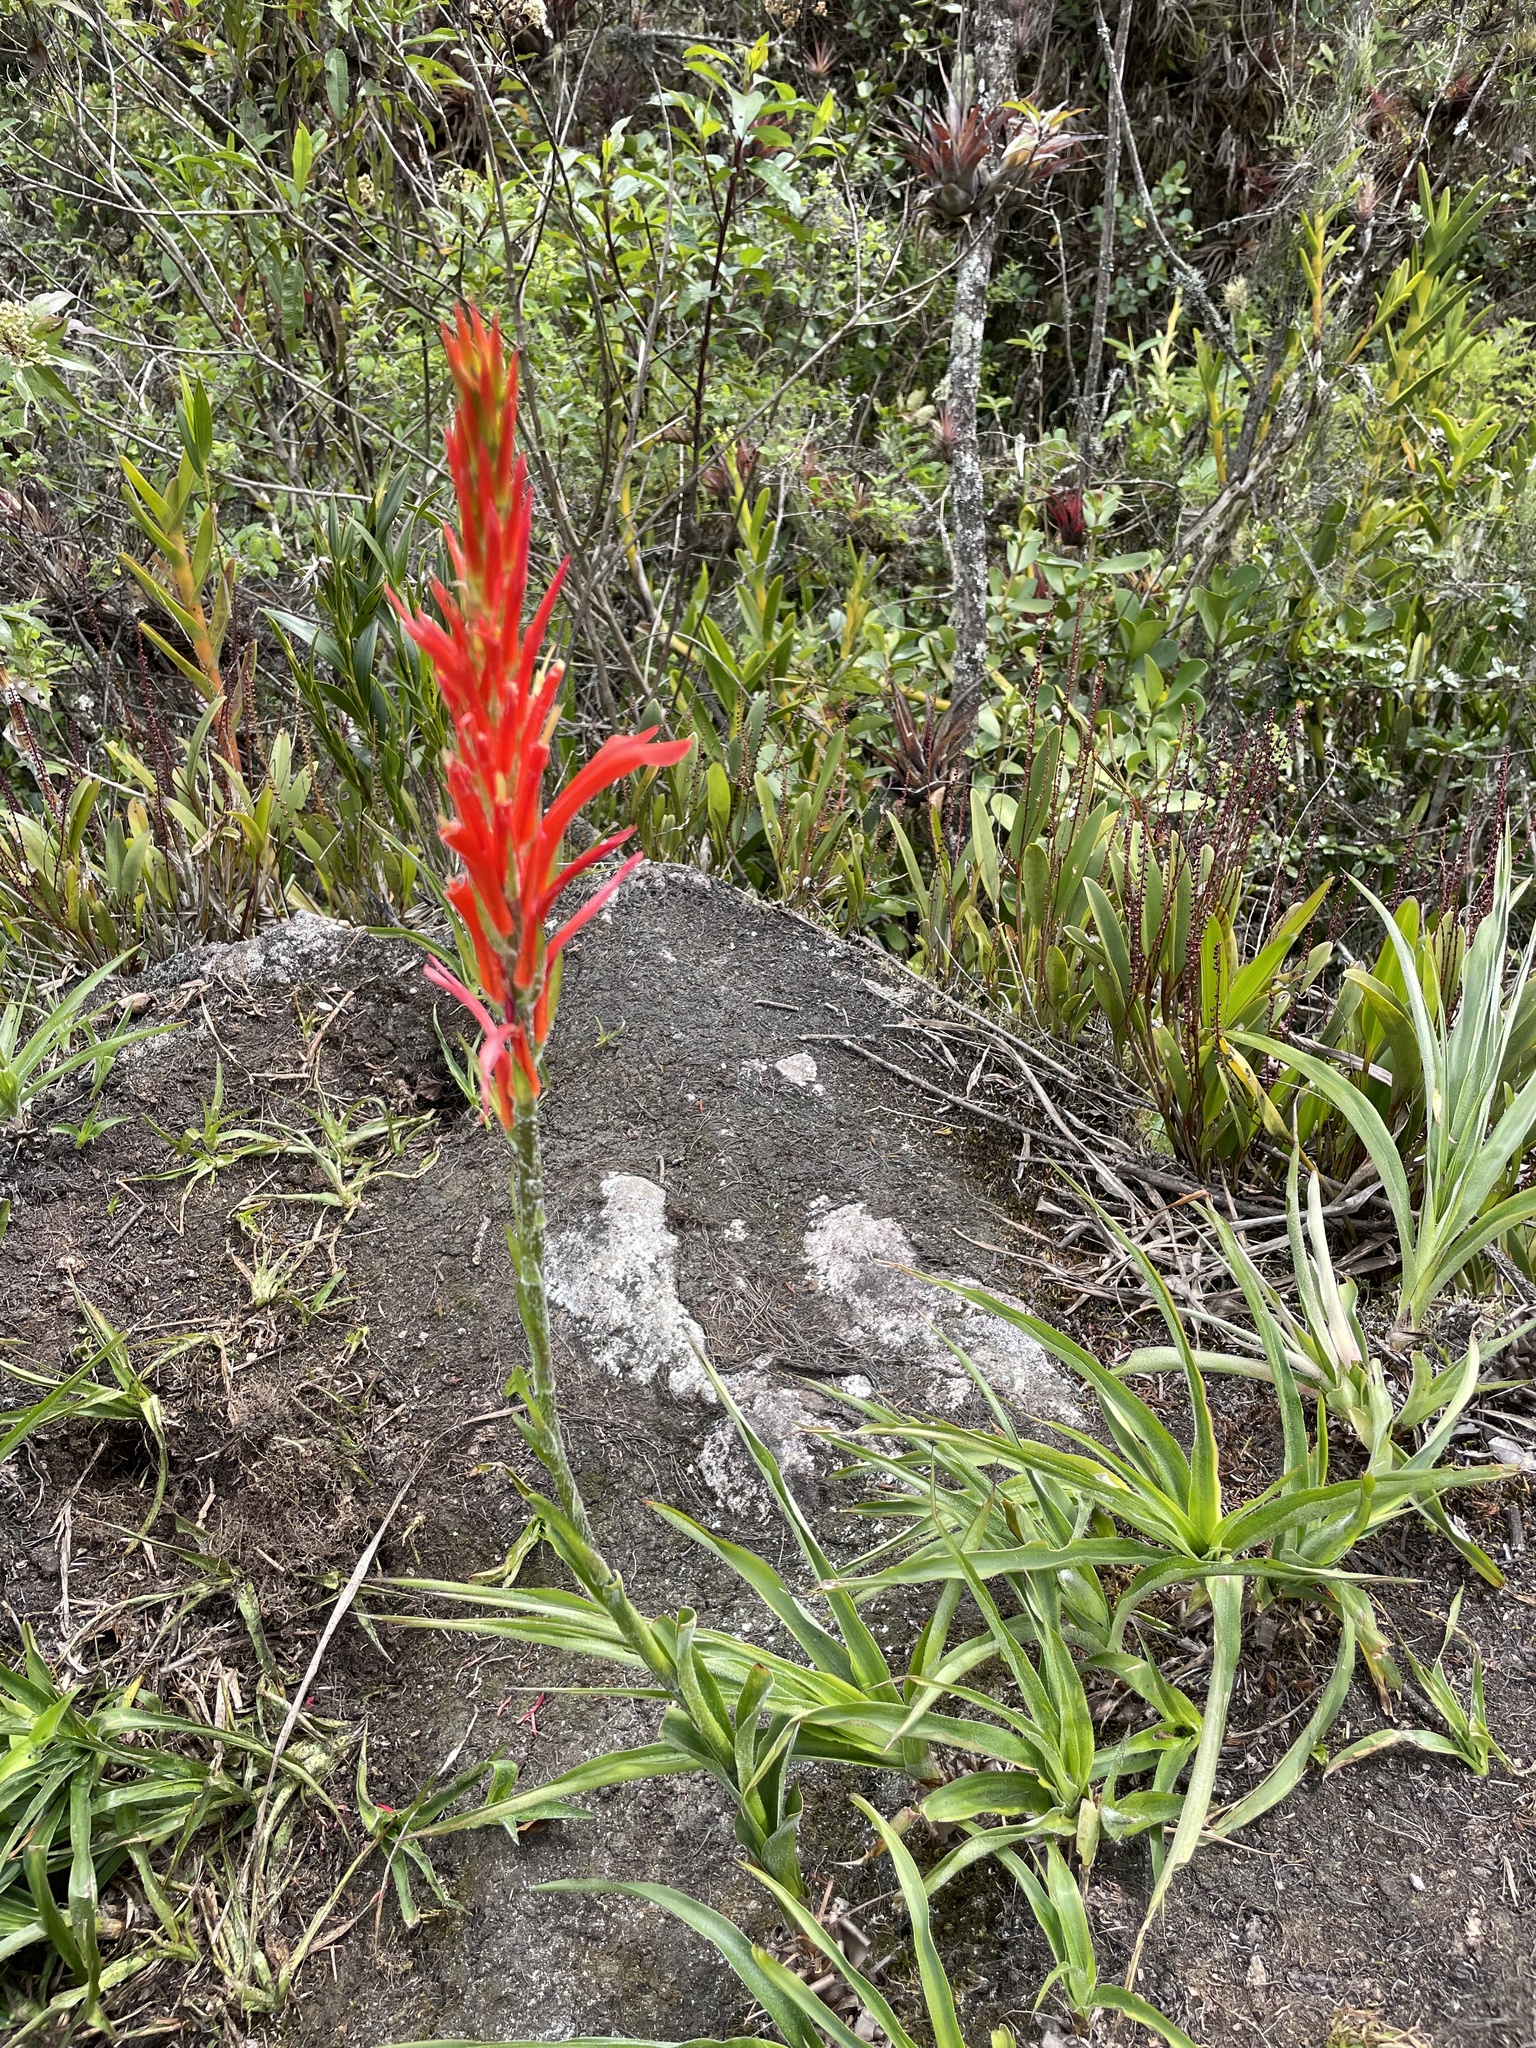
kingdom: Plantae
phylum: Tracheophyta
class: Liliopsida
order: Poales
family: Bromeliaceae
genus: Pitcairnia
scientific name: Pitcairnia pavonii
